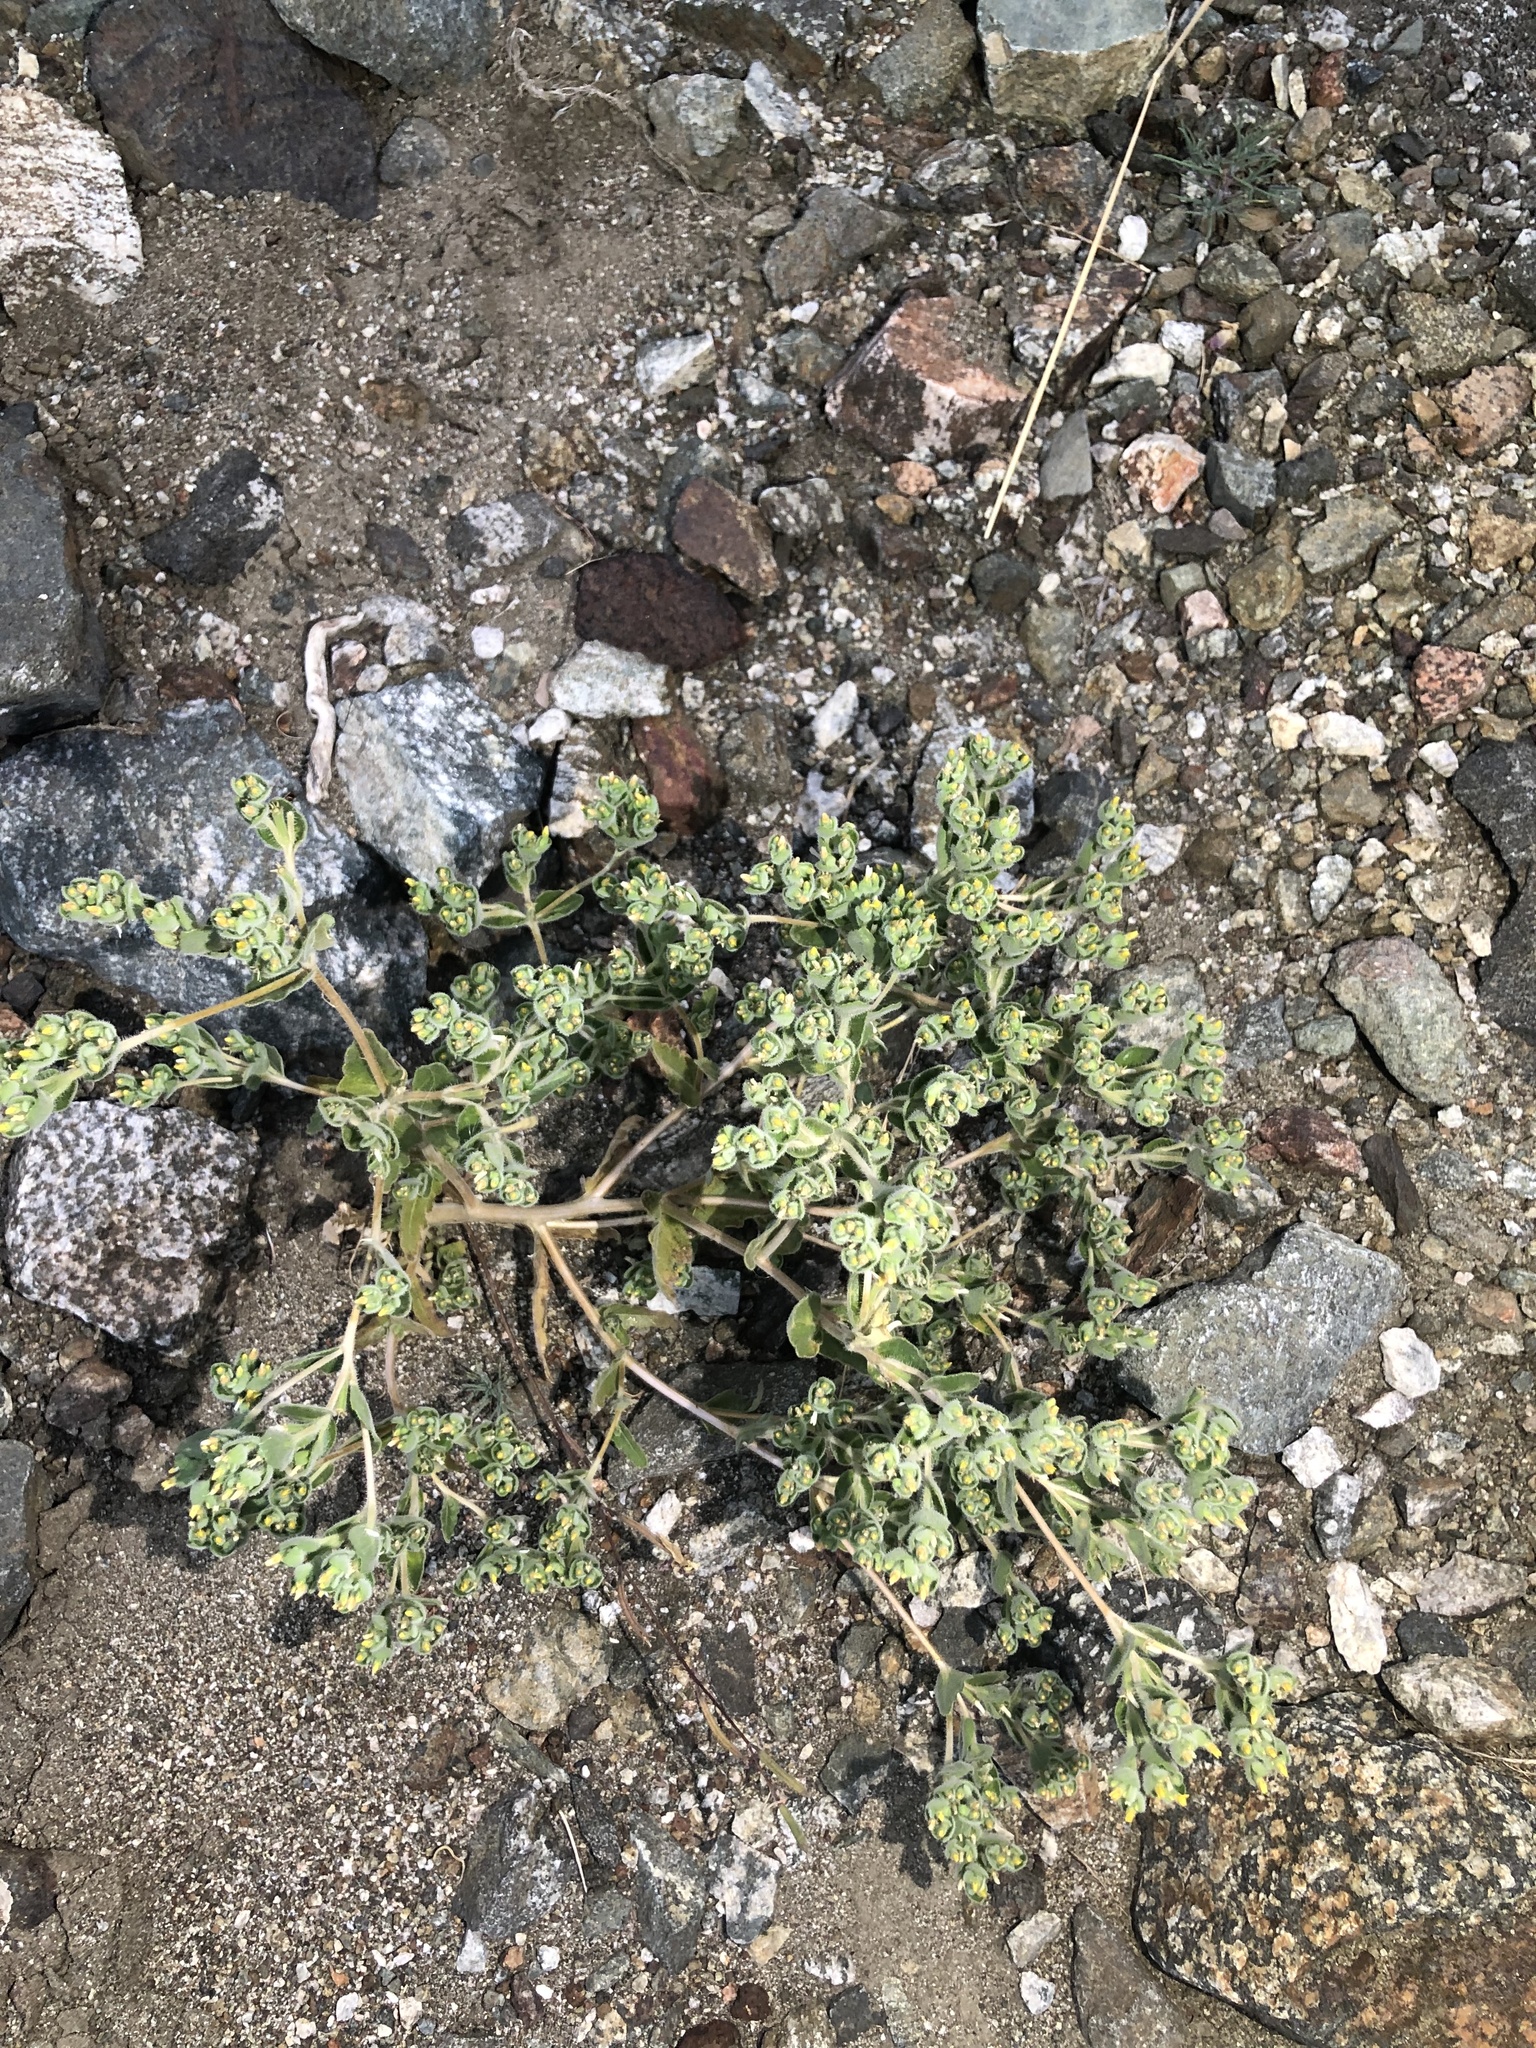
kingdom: Plantae
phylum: Tracheophyta
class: Magnoliopsida
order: Cornales
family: Loasaceae
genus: Mentzelia
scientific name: Mentzelia micrantha
